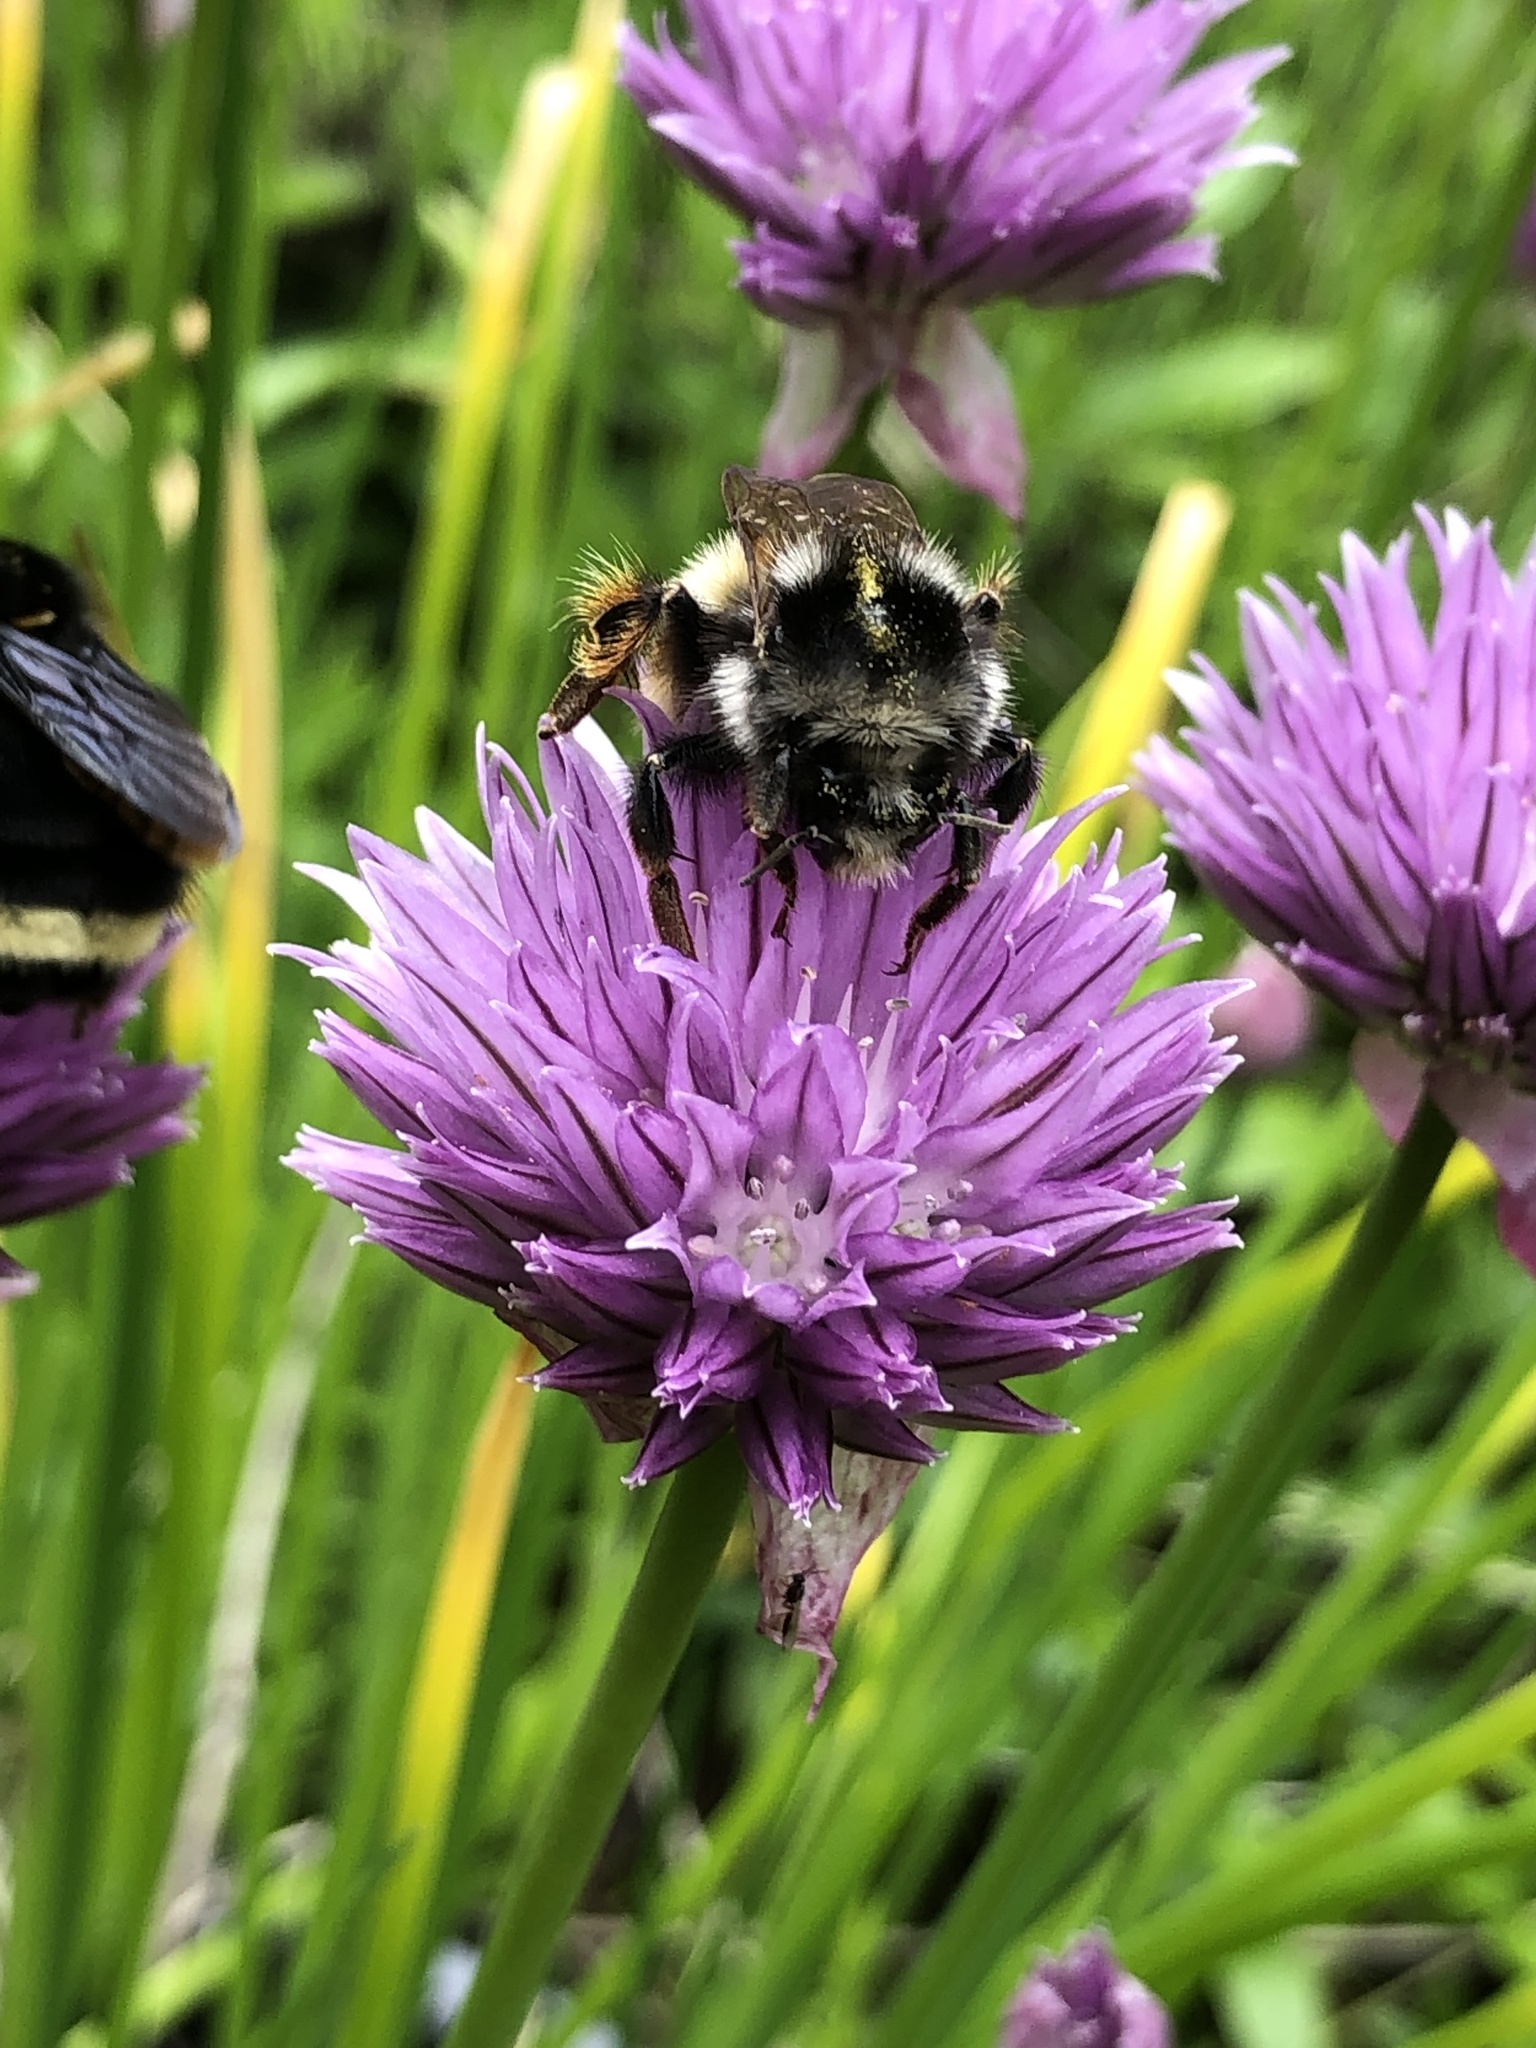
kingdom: Animalia
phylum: Arthropoda
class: Insecta
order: Hymenoptera
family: Apidae
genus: Bombus
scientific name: Bombus vancouverensis
